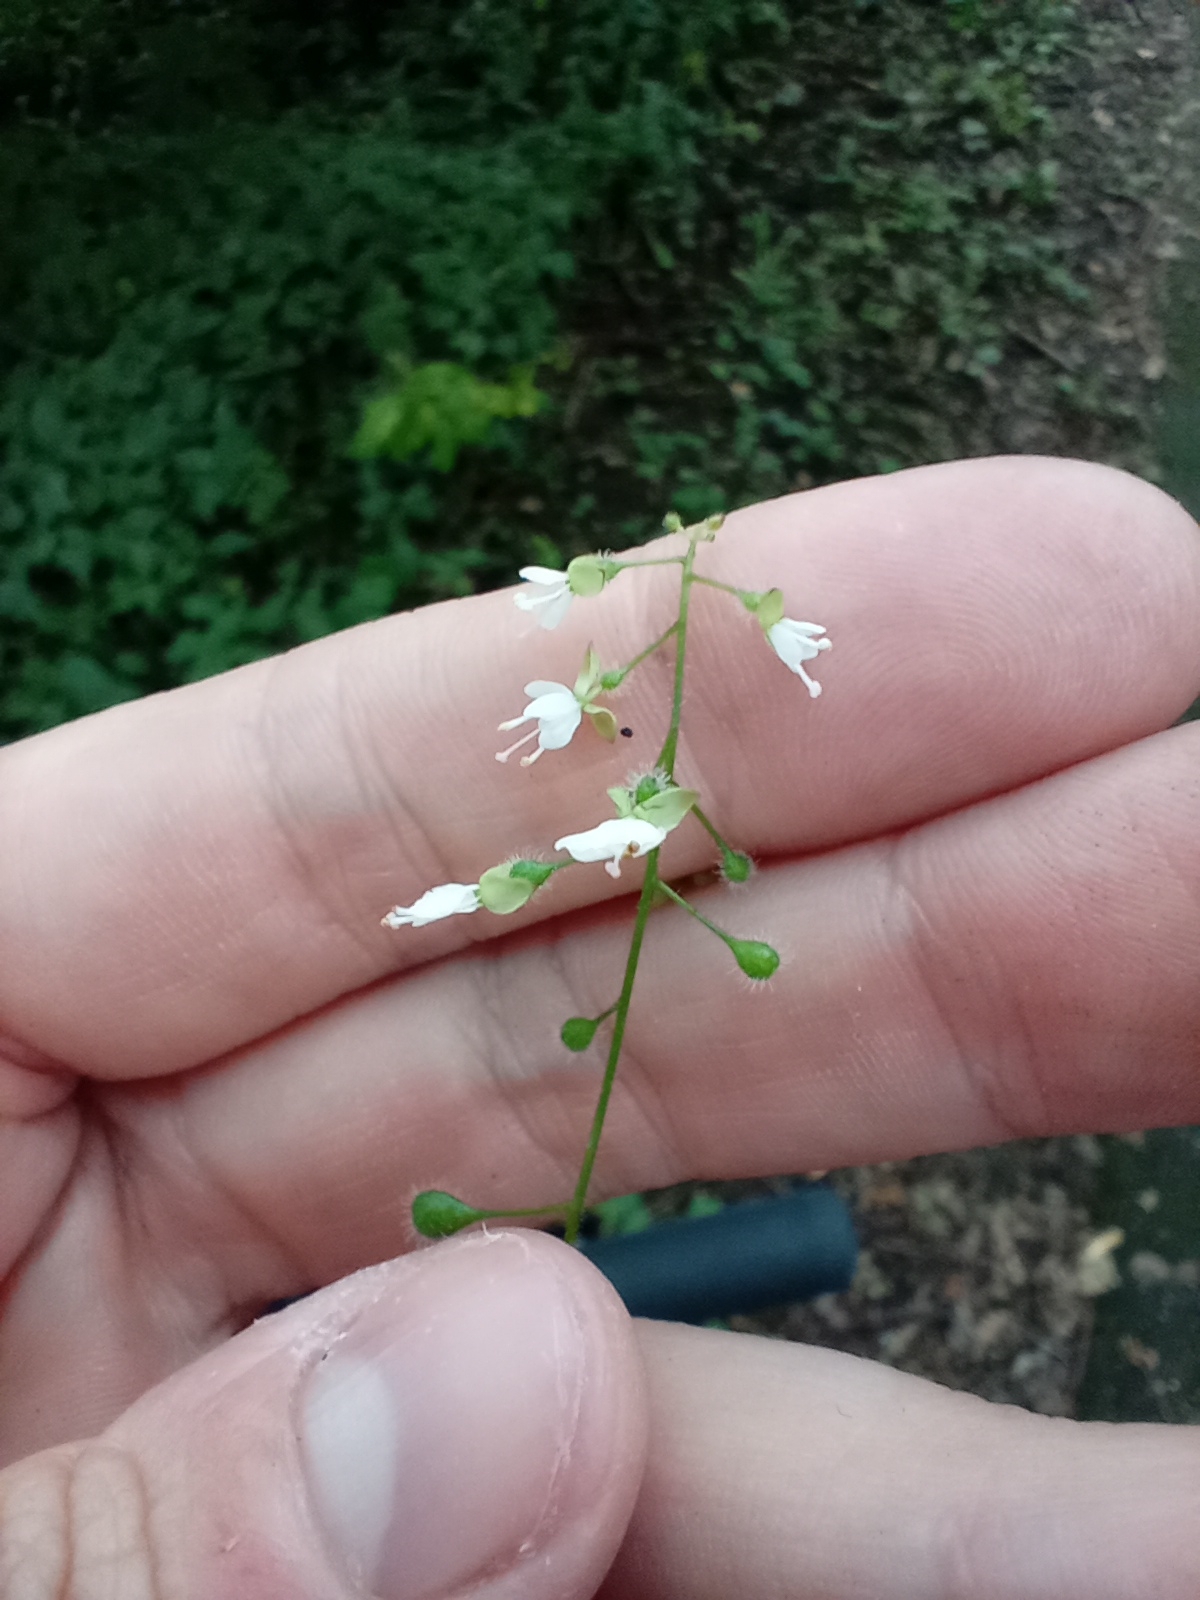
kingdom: Plantae
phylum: Tracheophyta
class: Magnoliopsida
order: Myrtales
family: Onagraceae
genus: Circaea
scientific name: Circaea lutetiana
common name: Enchanter's-nightshade
